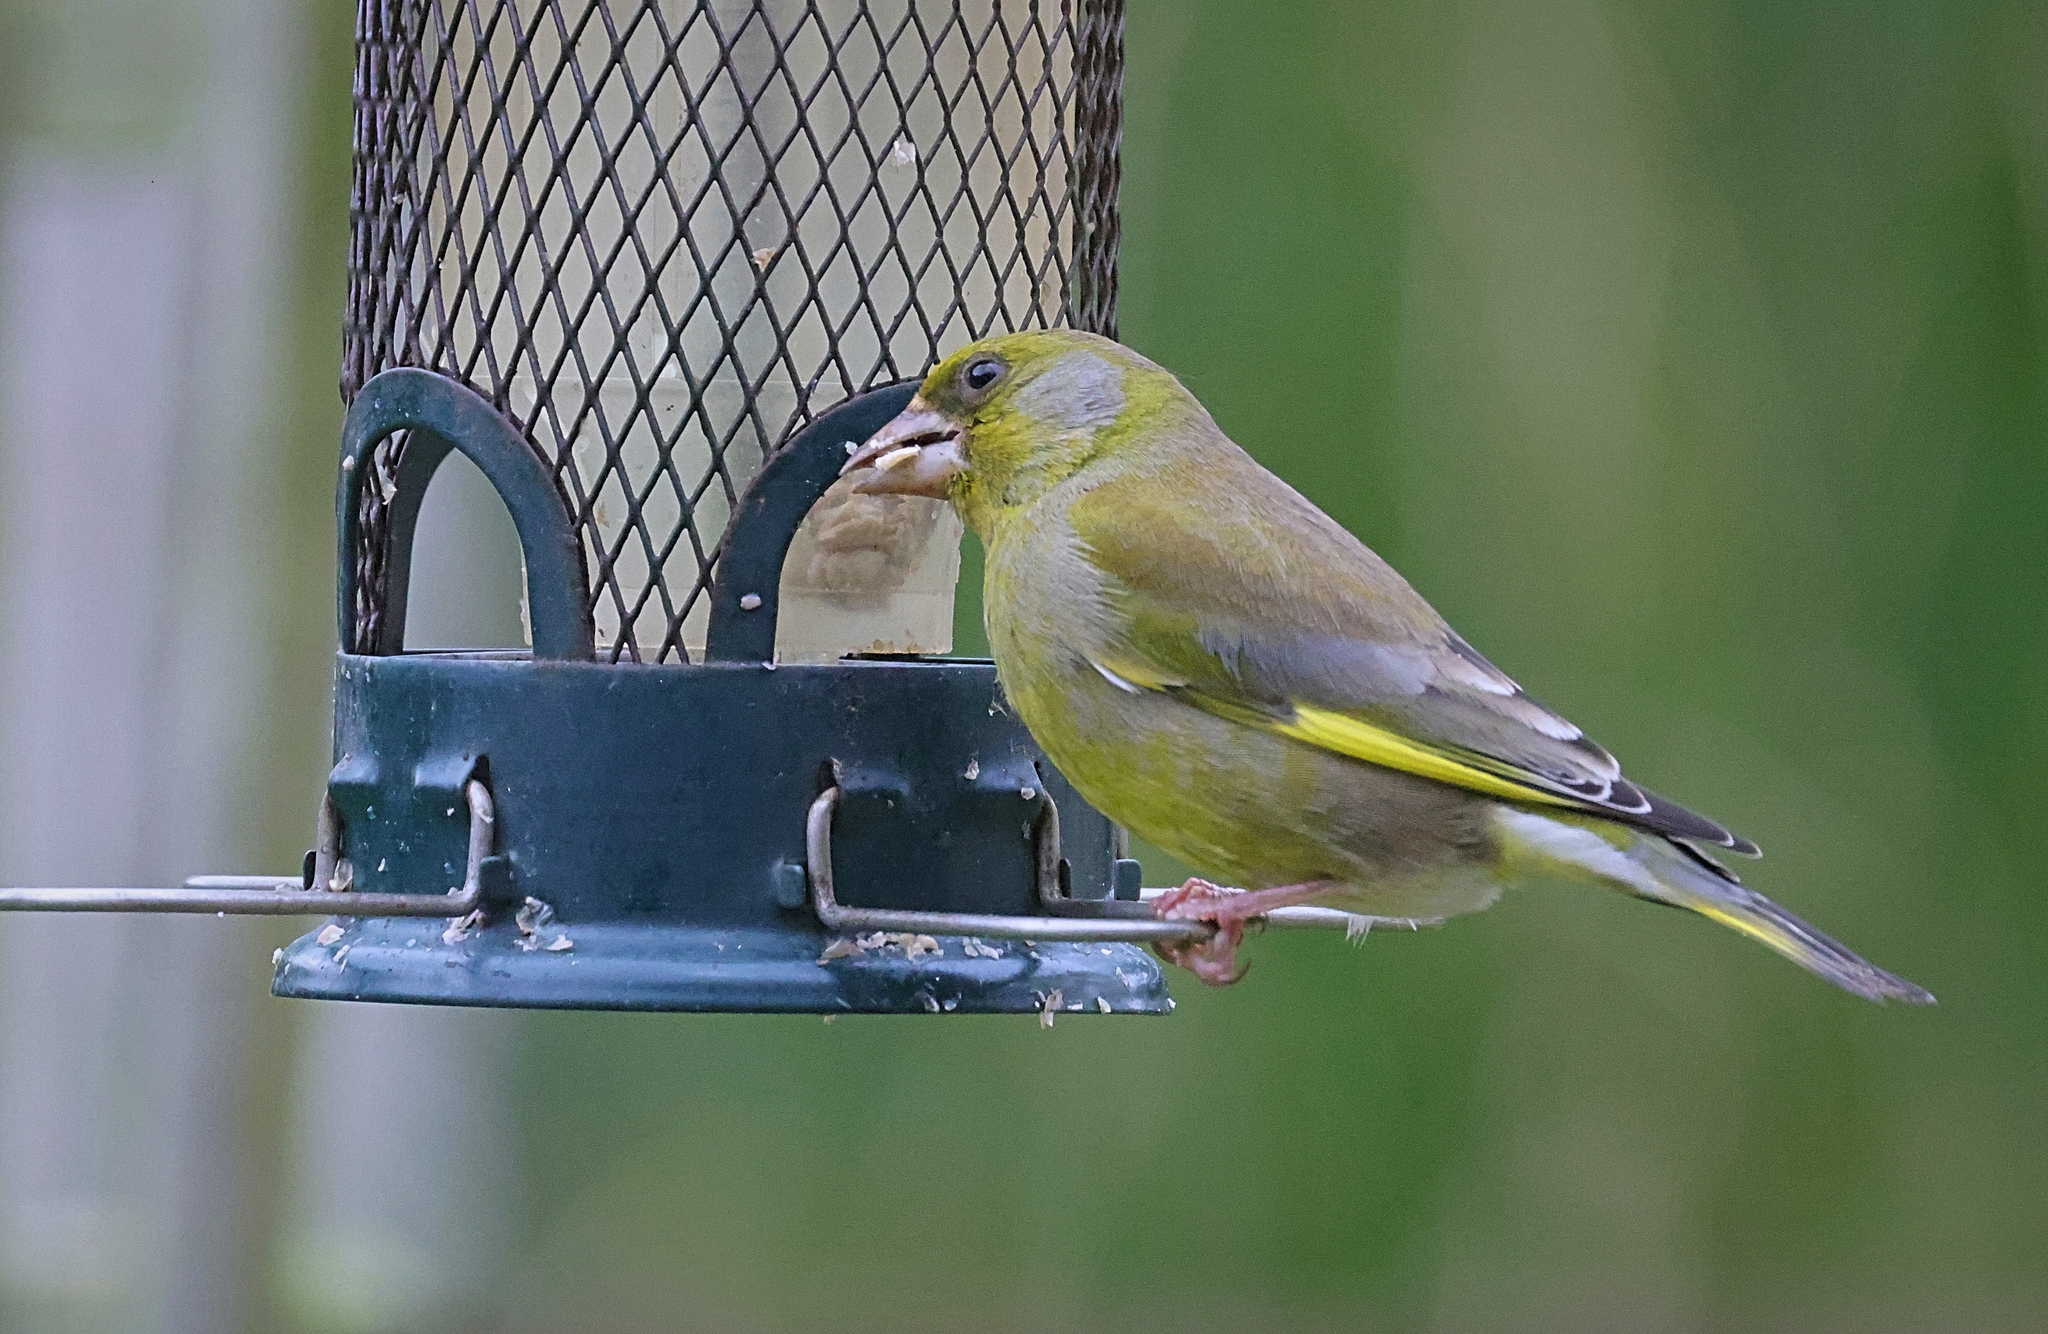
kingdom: Plantae
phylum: Tracheophyta
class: Liliopsida
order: Poales
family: Poaceae
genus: Chloris
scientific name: Chloris chloris
